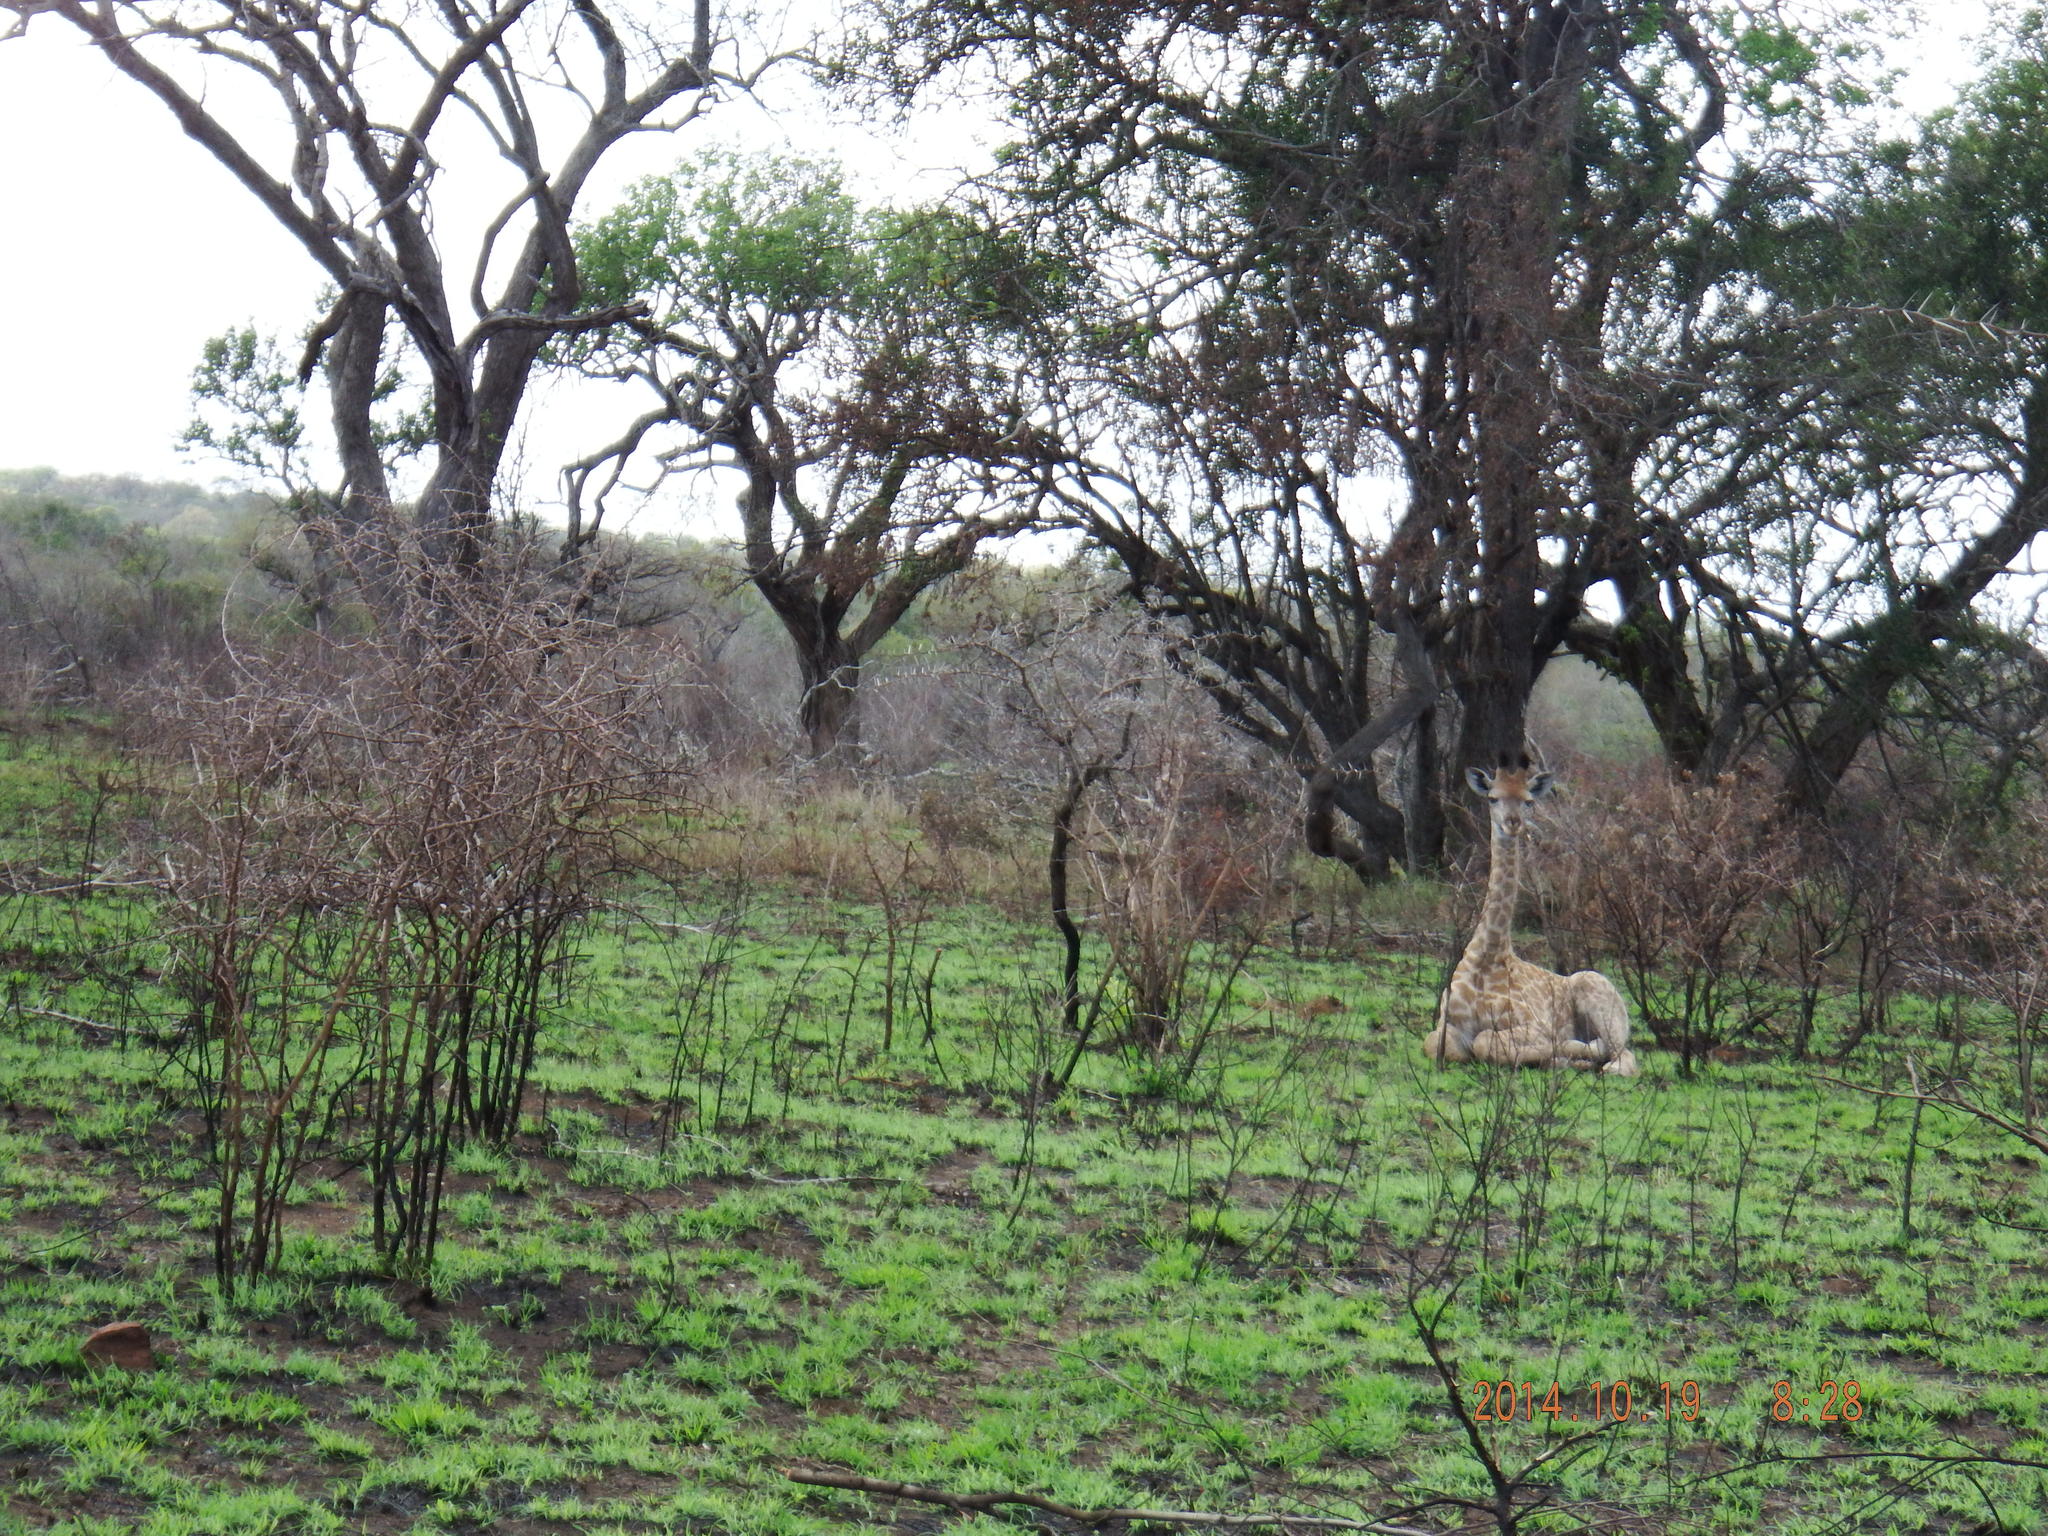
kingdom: Animalia
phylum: Chordata
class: Mammalia
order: Artiodactyla
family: Giraffidae
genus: Giraffa
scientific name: Giraffa giraffa
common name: Southern giraffe
